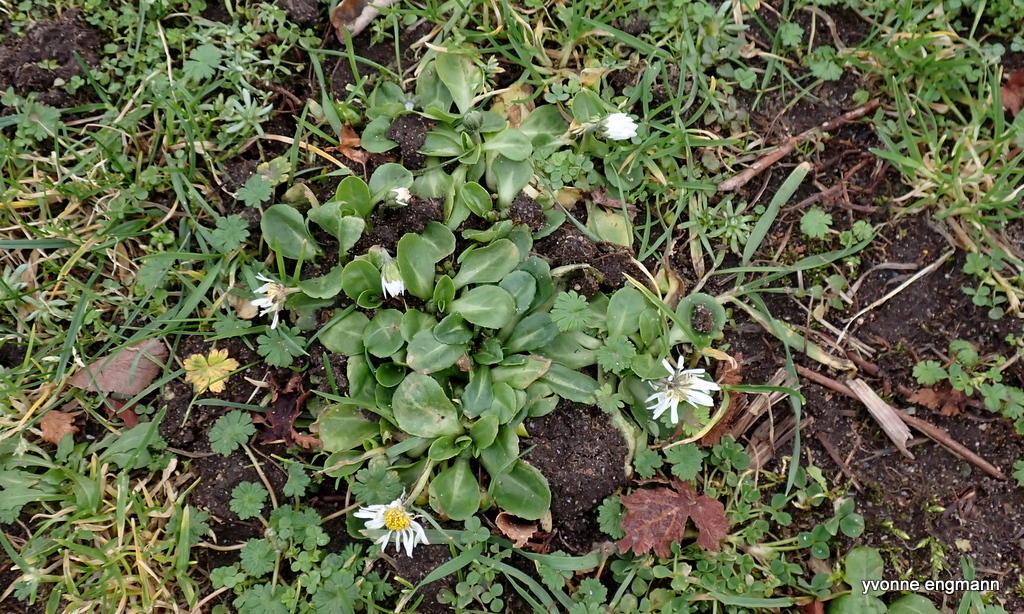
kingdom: Plantae
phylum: Tracheophyta
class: Magnoliopsida
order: Asterales
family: Asteraceae
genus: Bellis
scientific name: Bellis perennis
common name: Lawndaisy
